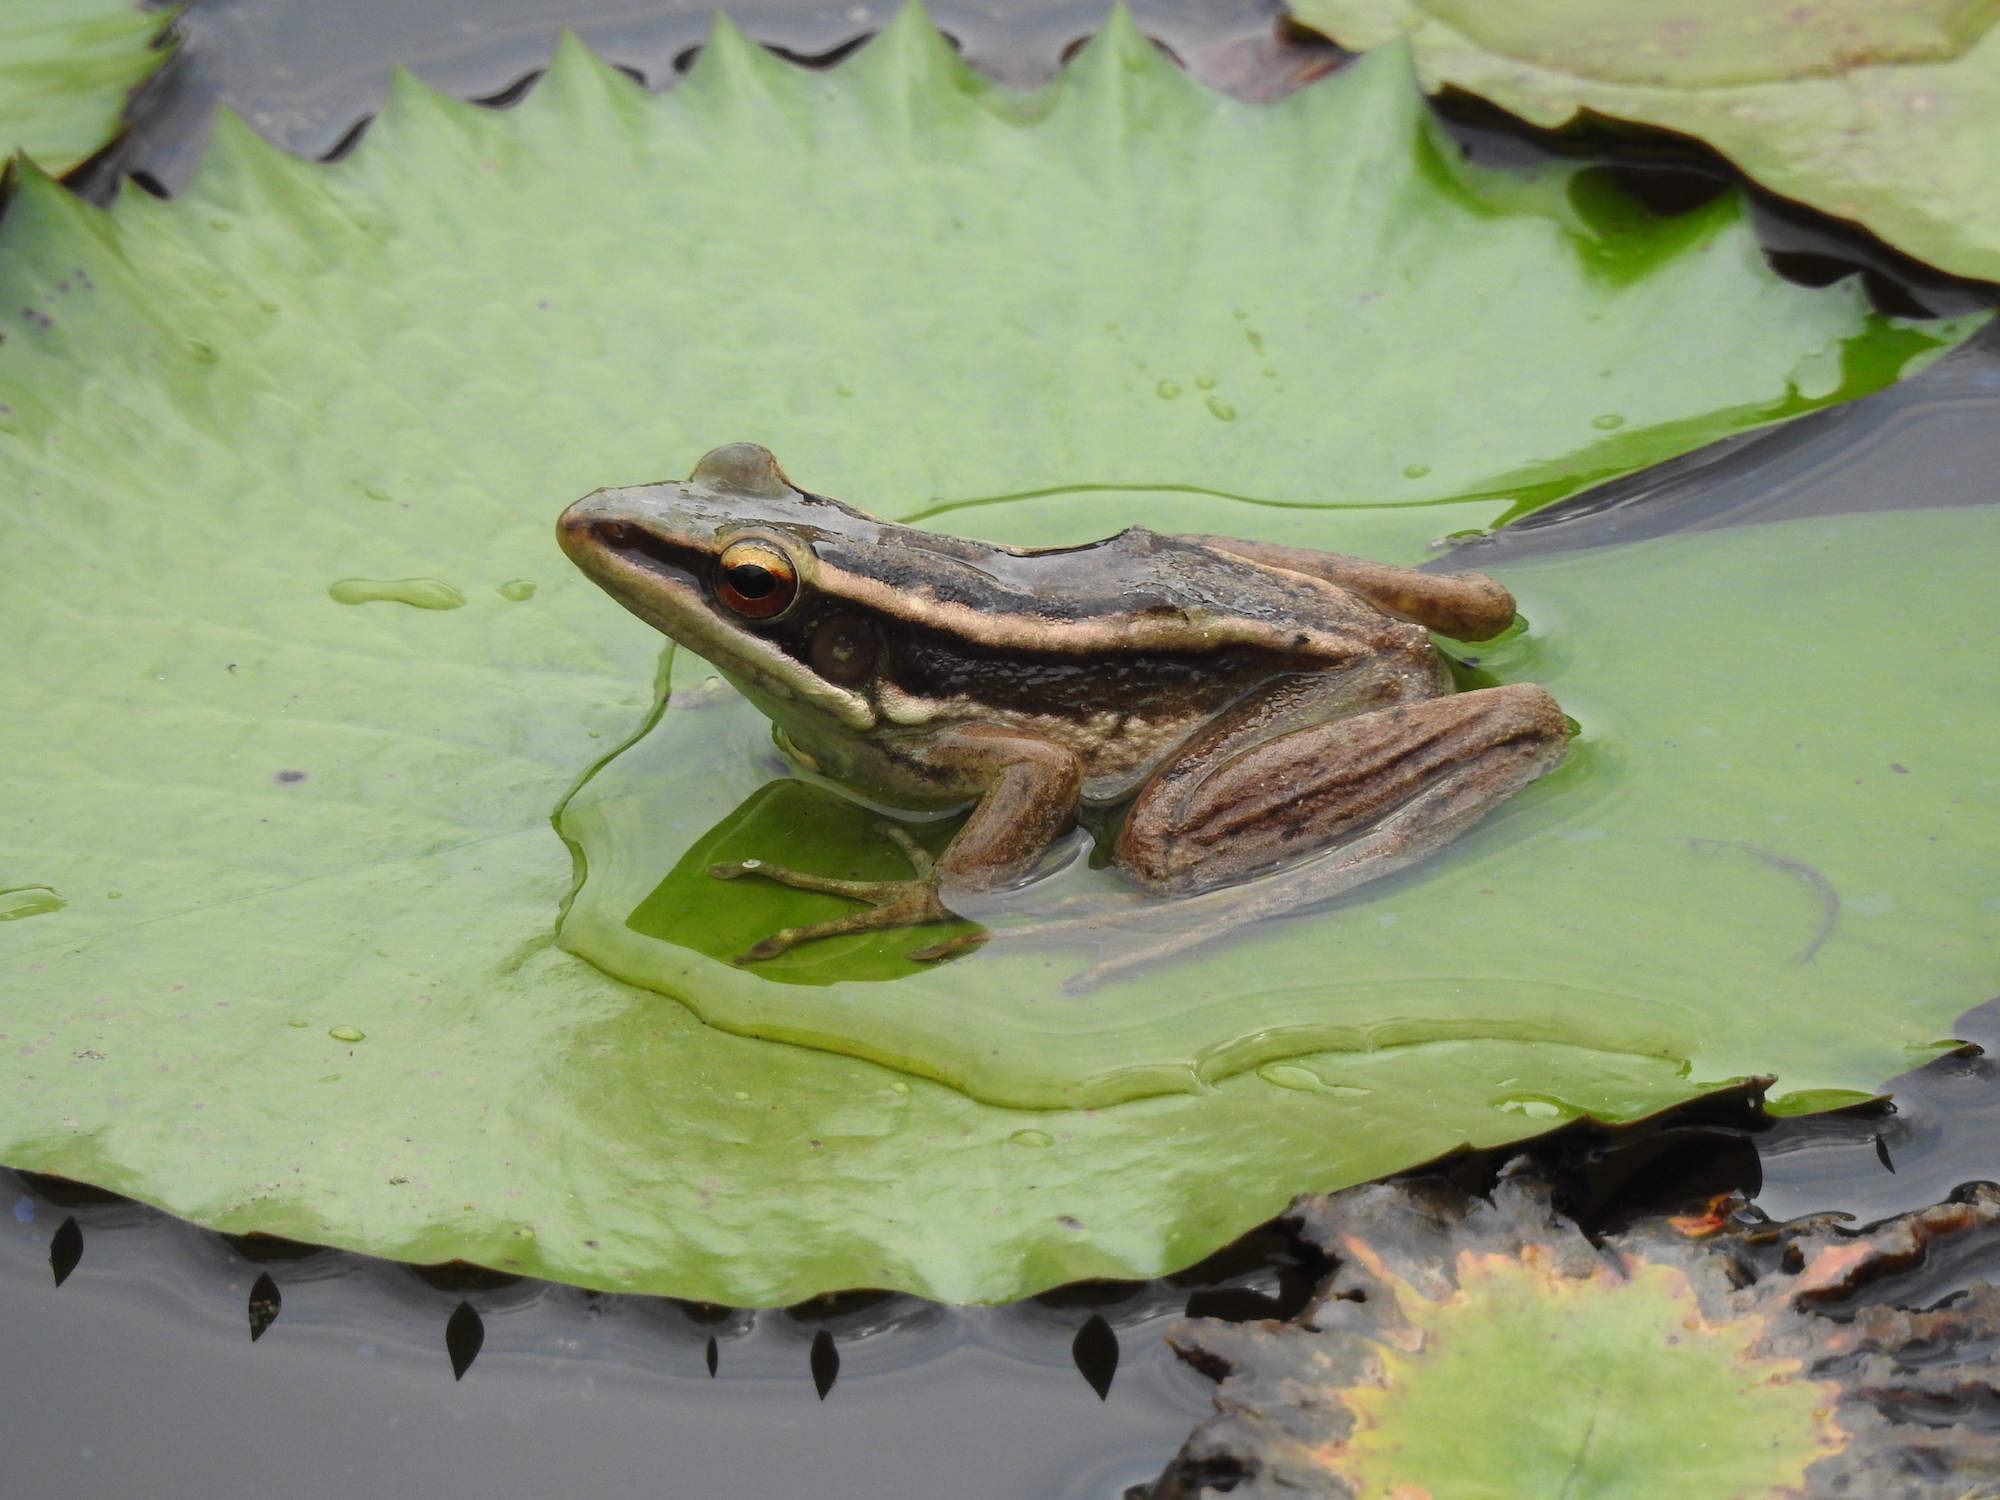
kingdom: Animalia
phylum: Chordata
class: Amphibia
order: Anura
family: Ranidae
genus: Hylarana
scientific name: Hylarana erythraea
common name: Common green frog/green paddy frog/leaf frog
